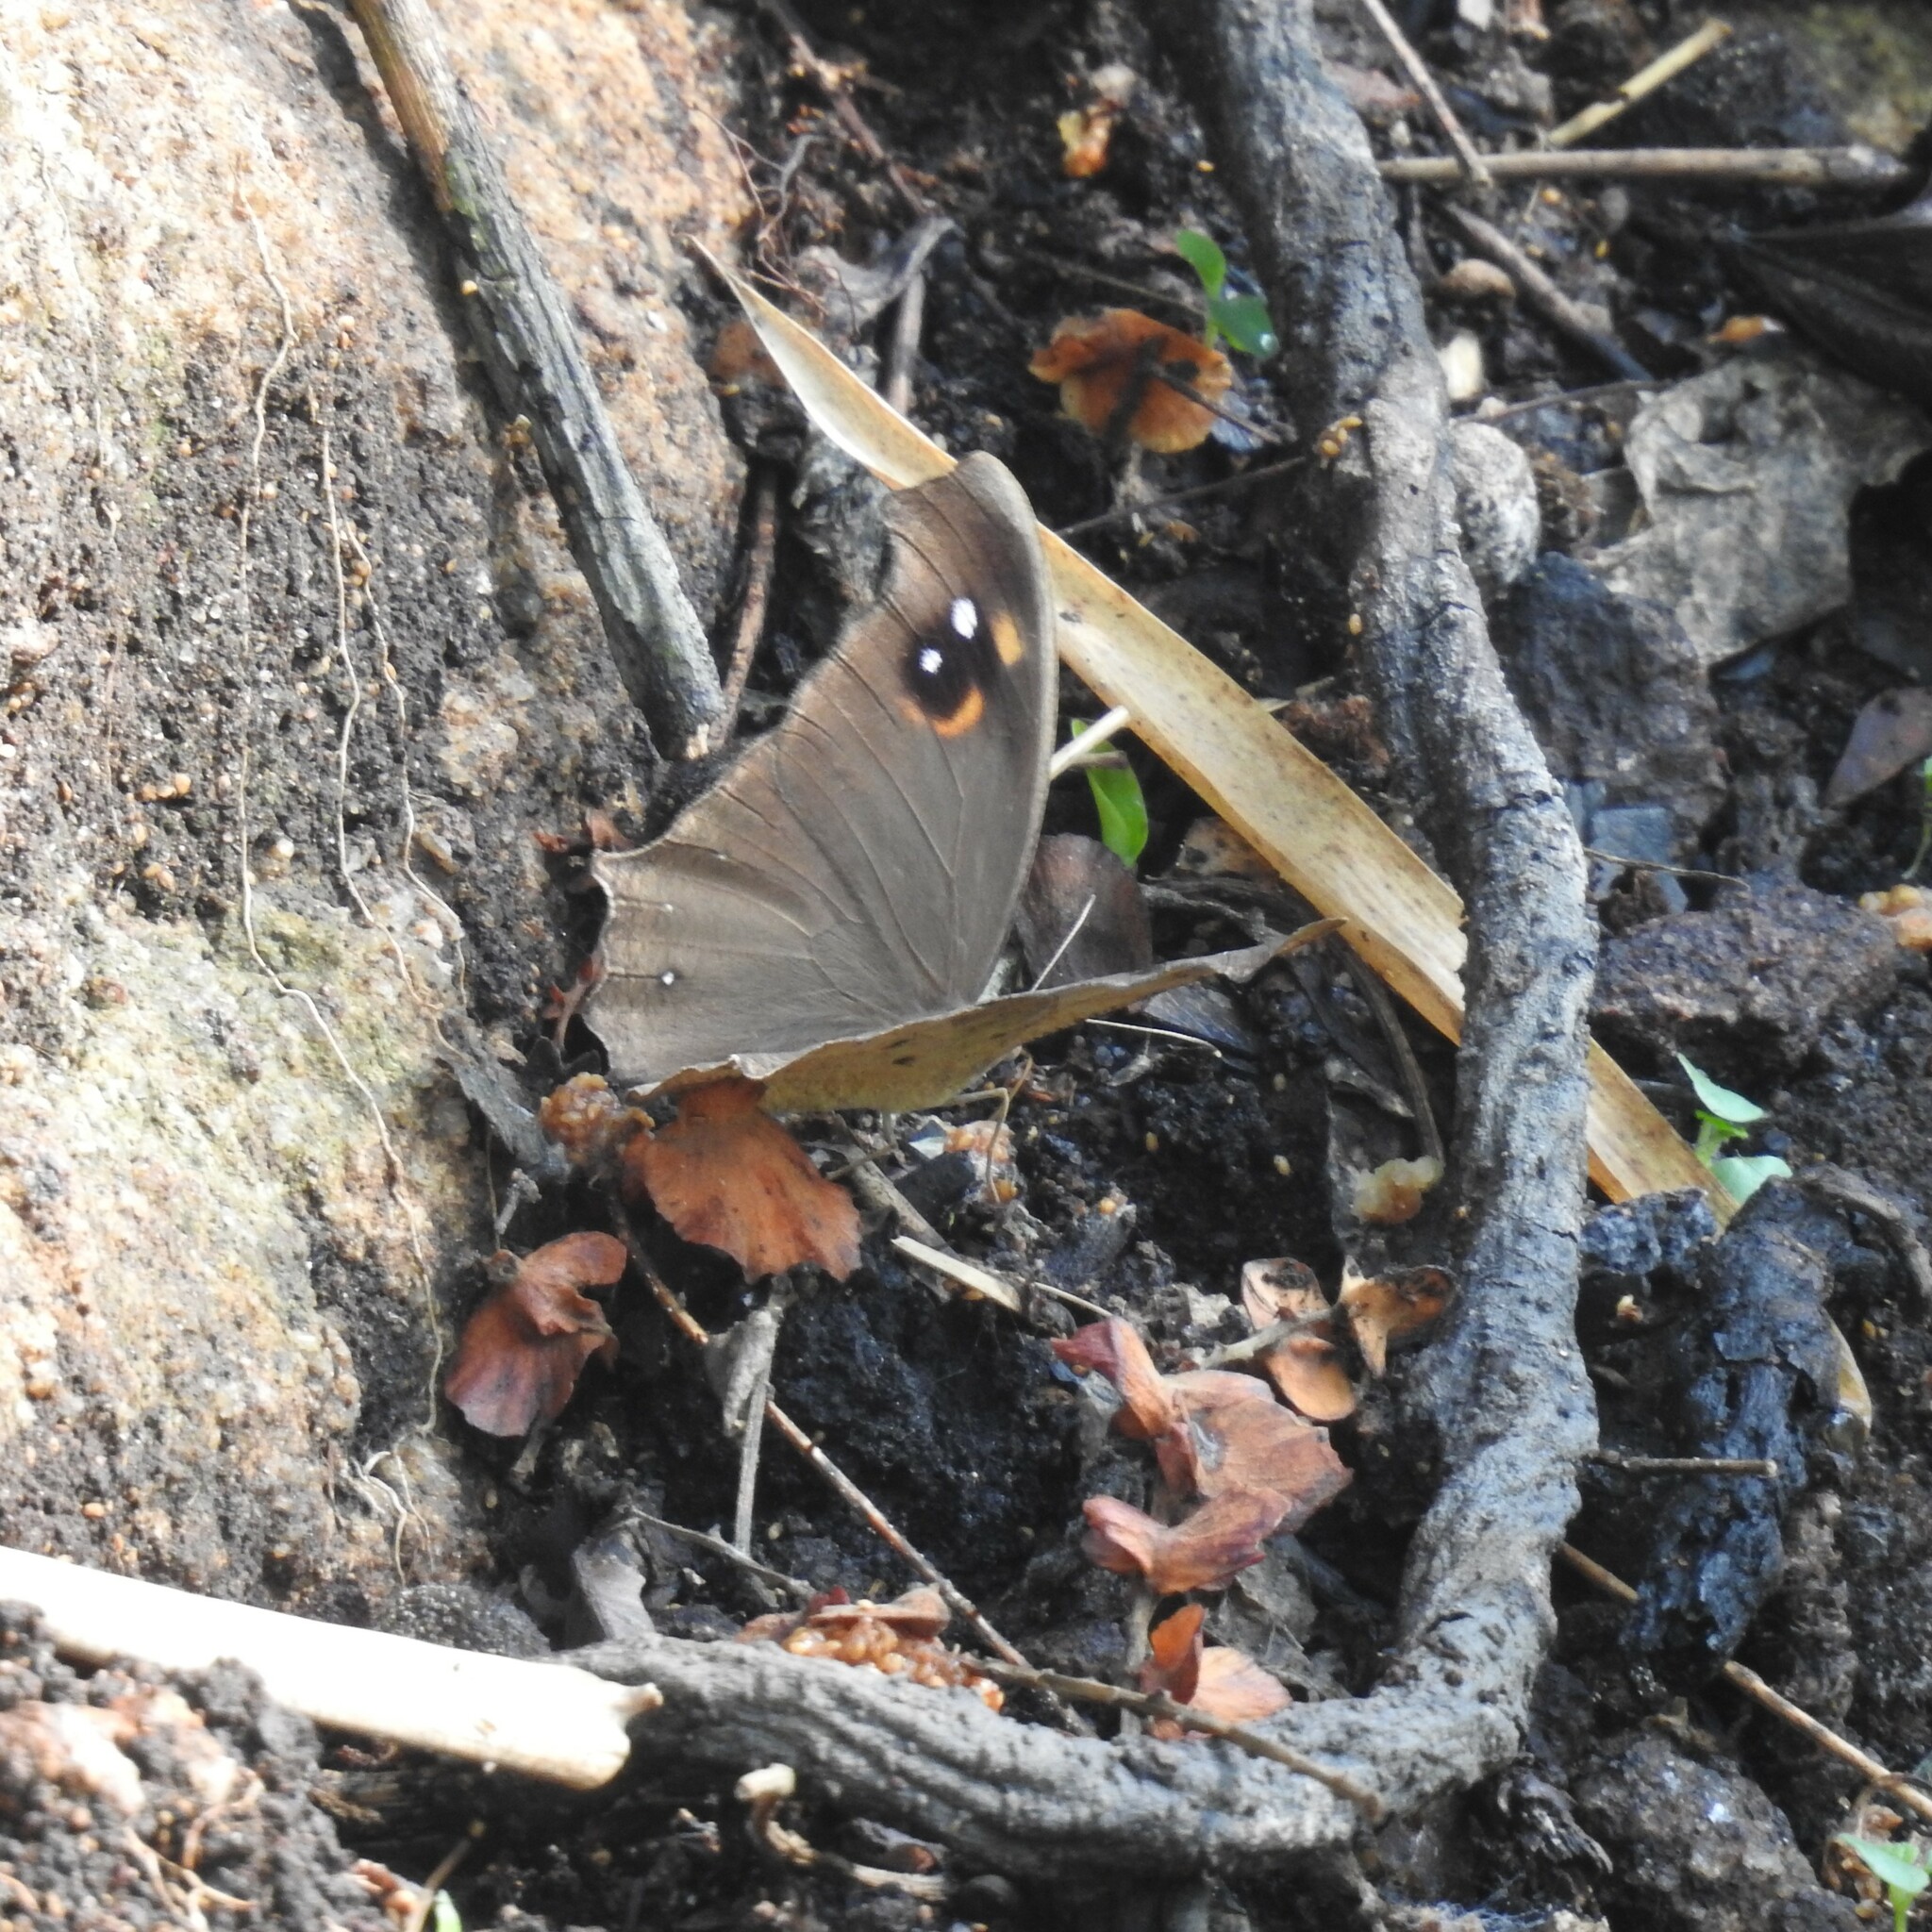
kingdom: Animalia
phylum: Arthropoda
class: Insecta
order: Lepidoptera
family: Nymphalidae
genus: Melanitis
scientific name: Melanitis leda
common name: Twilight brown
